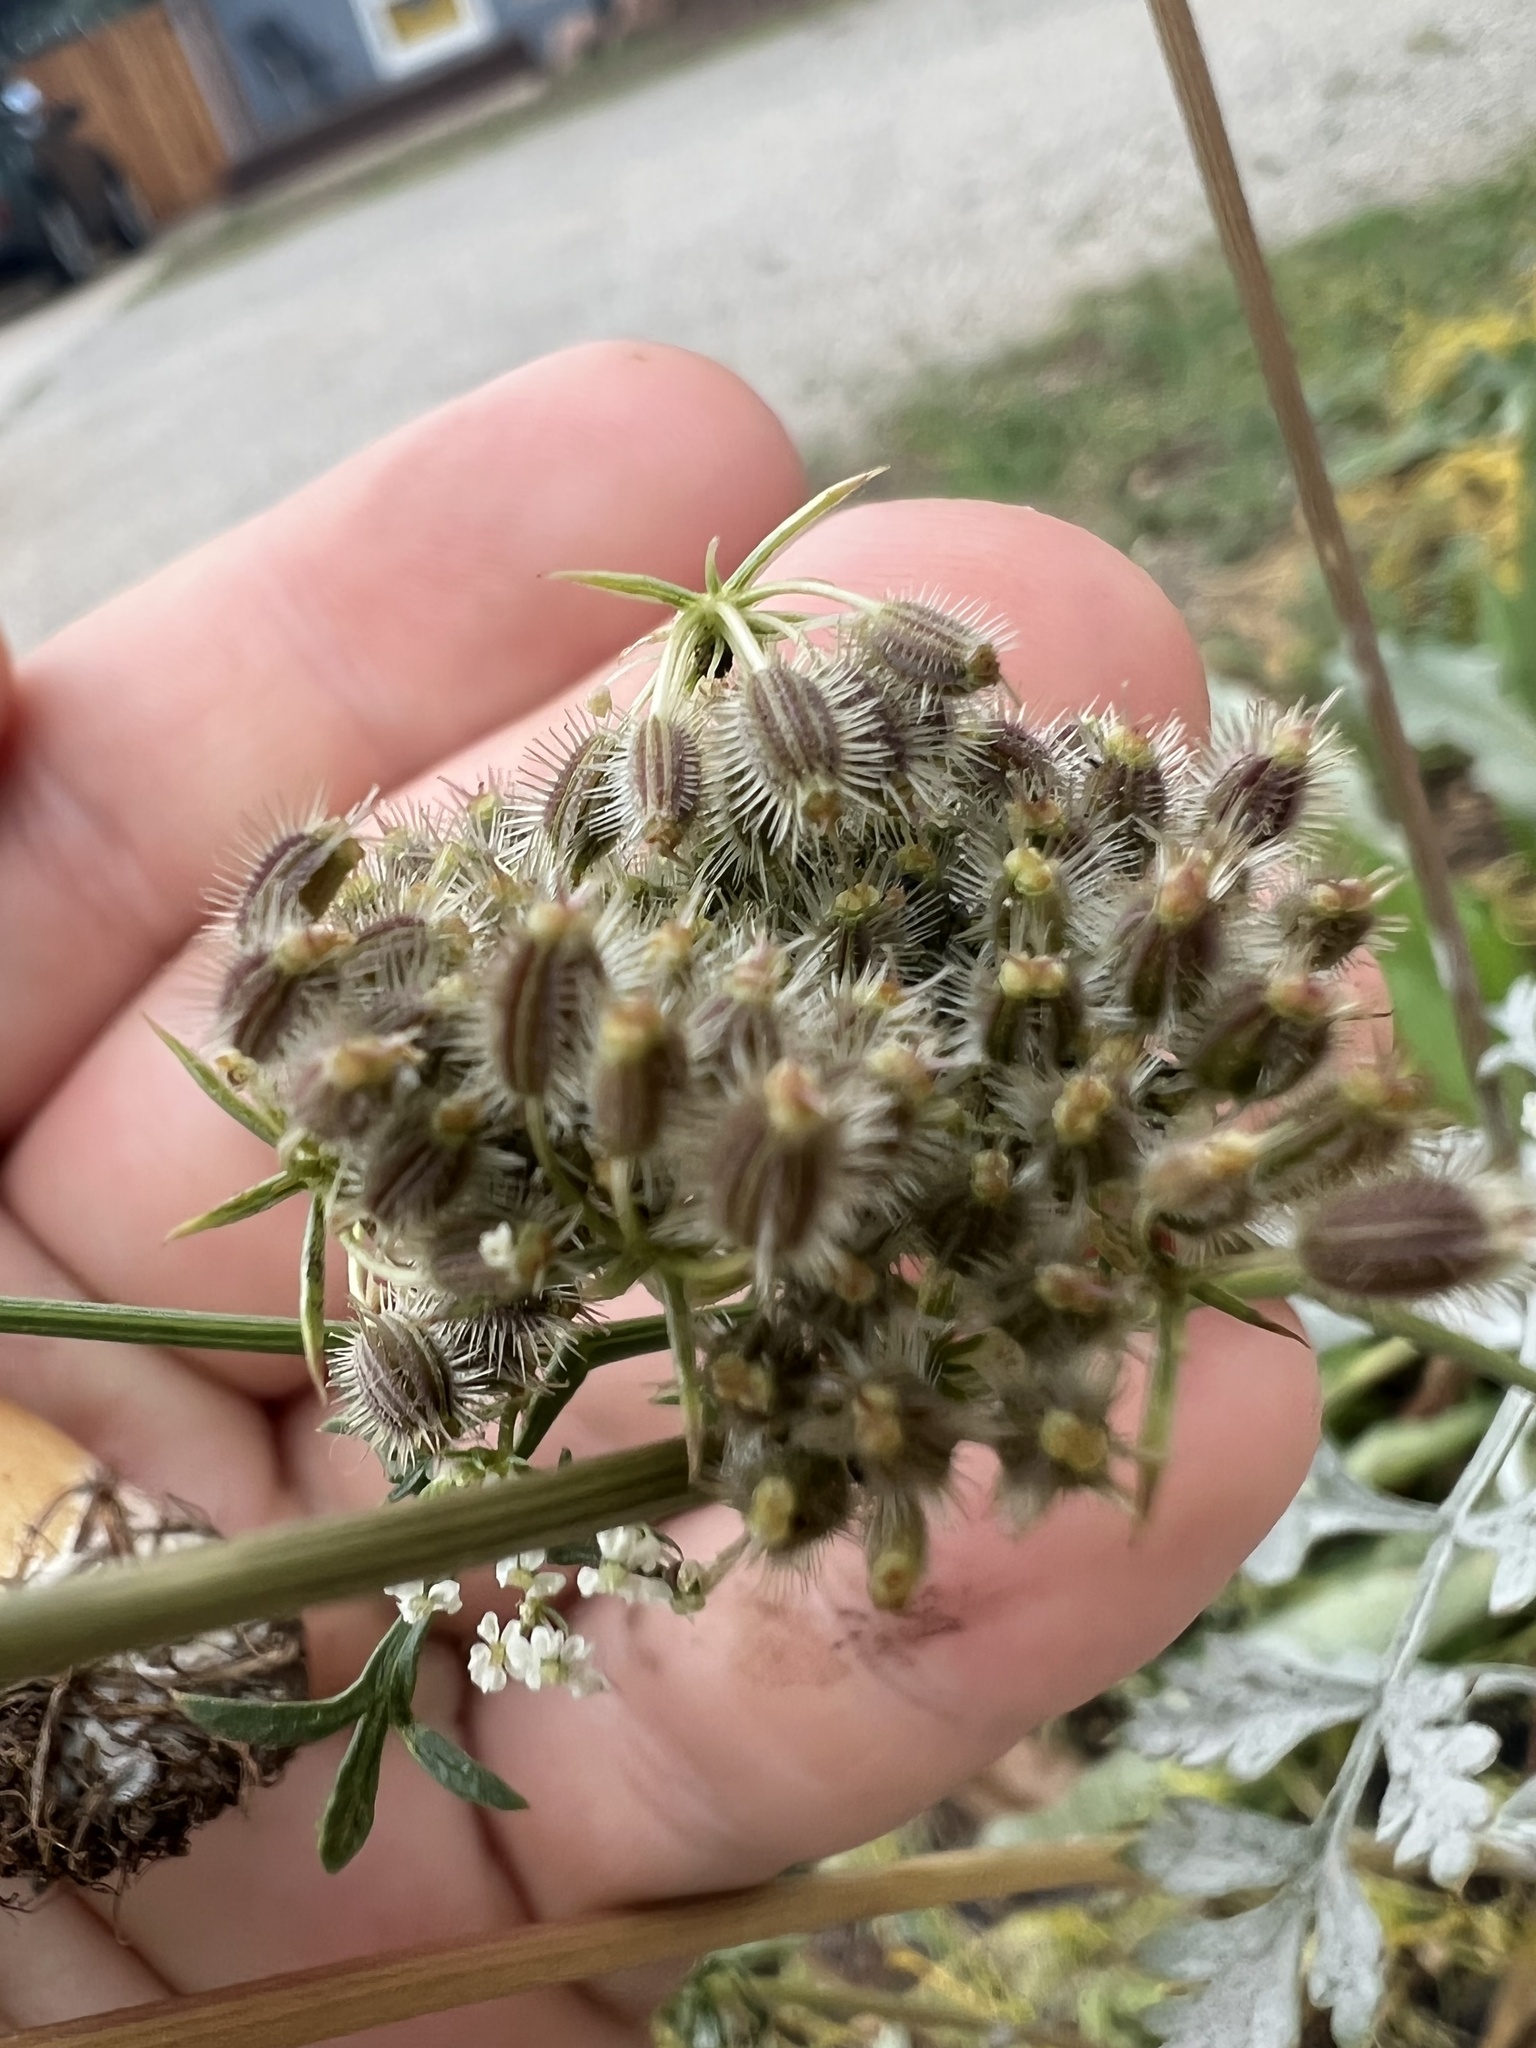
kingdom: Plantae
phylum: Tracheophyta
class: Magnoliopsida
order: Apiales
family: Apiaceae
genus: Daucus
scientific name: Daucus carota
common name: Wild carrot
